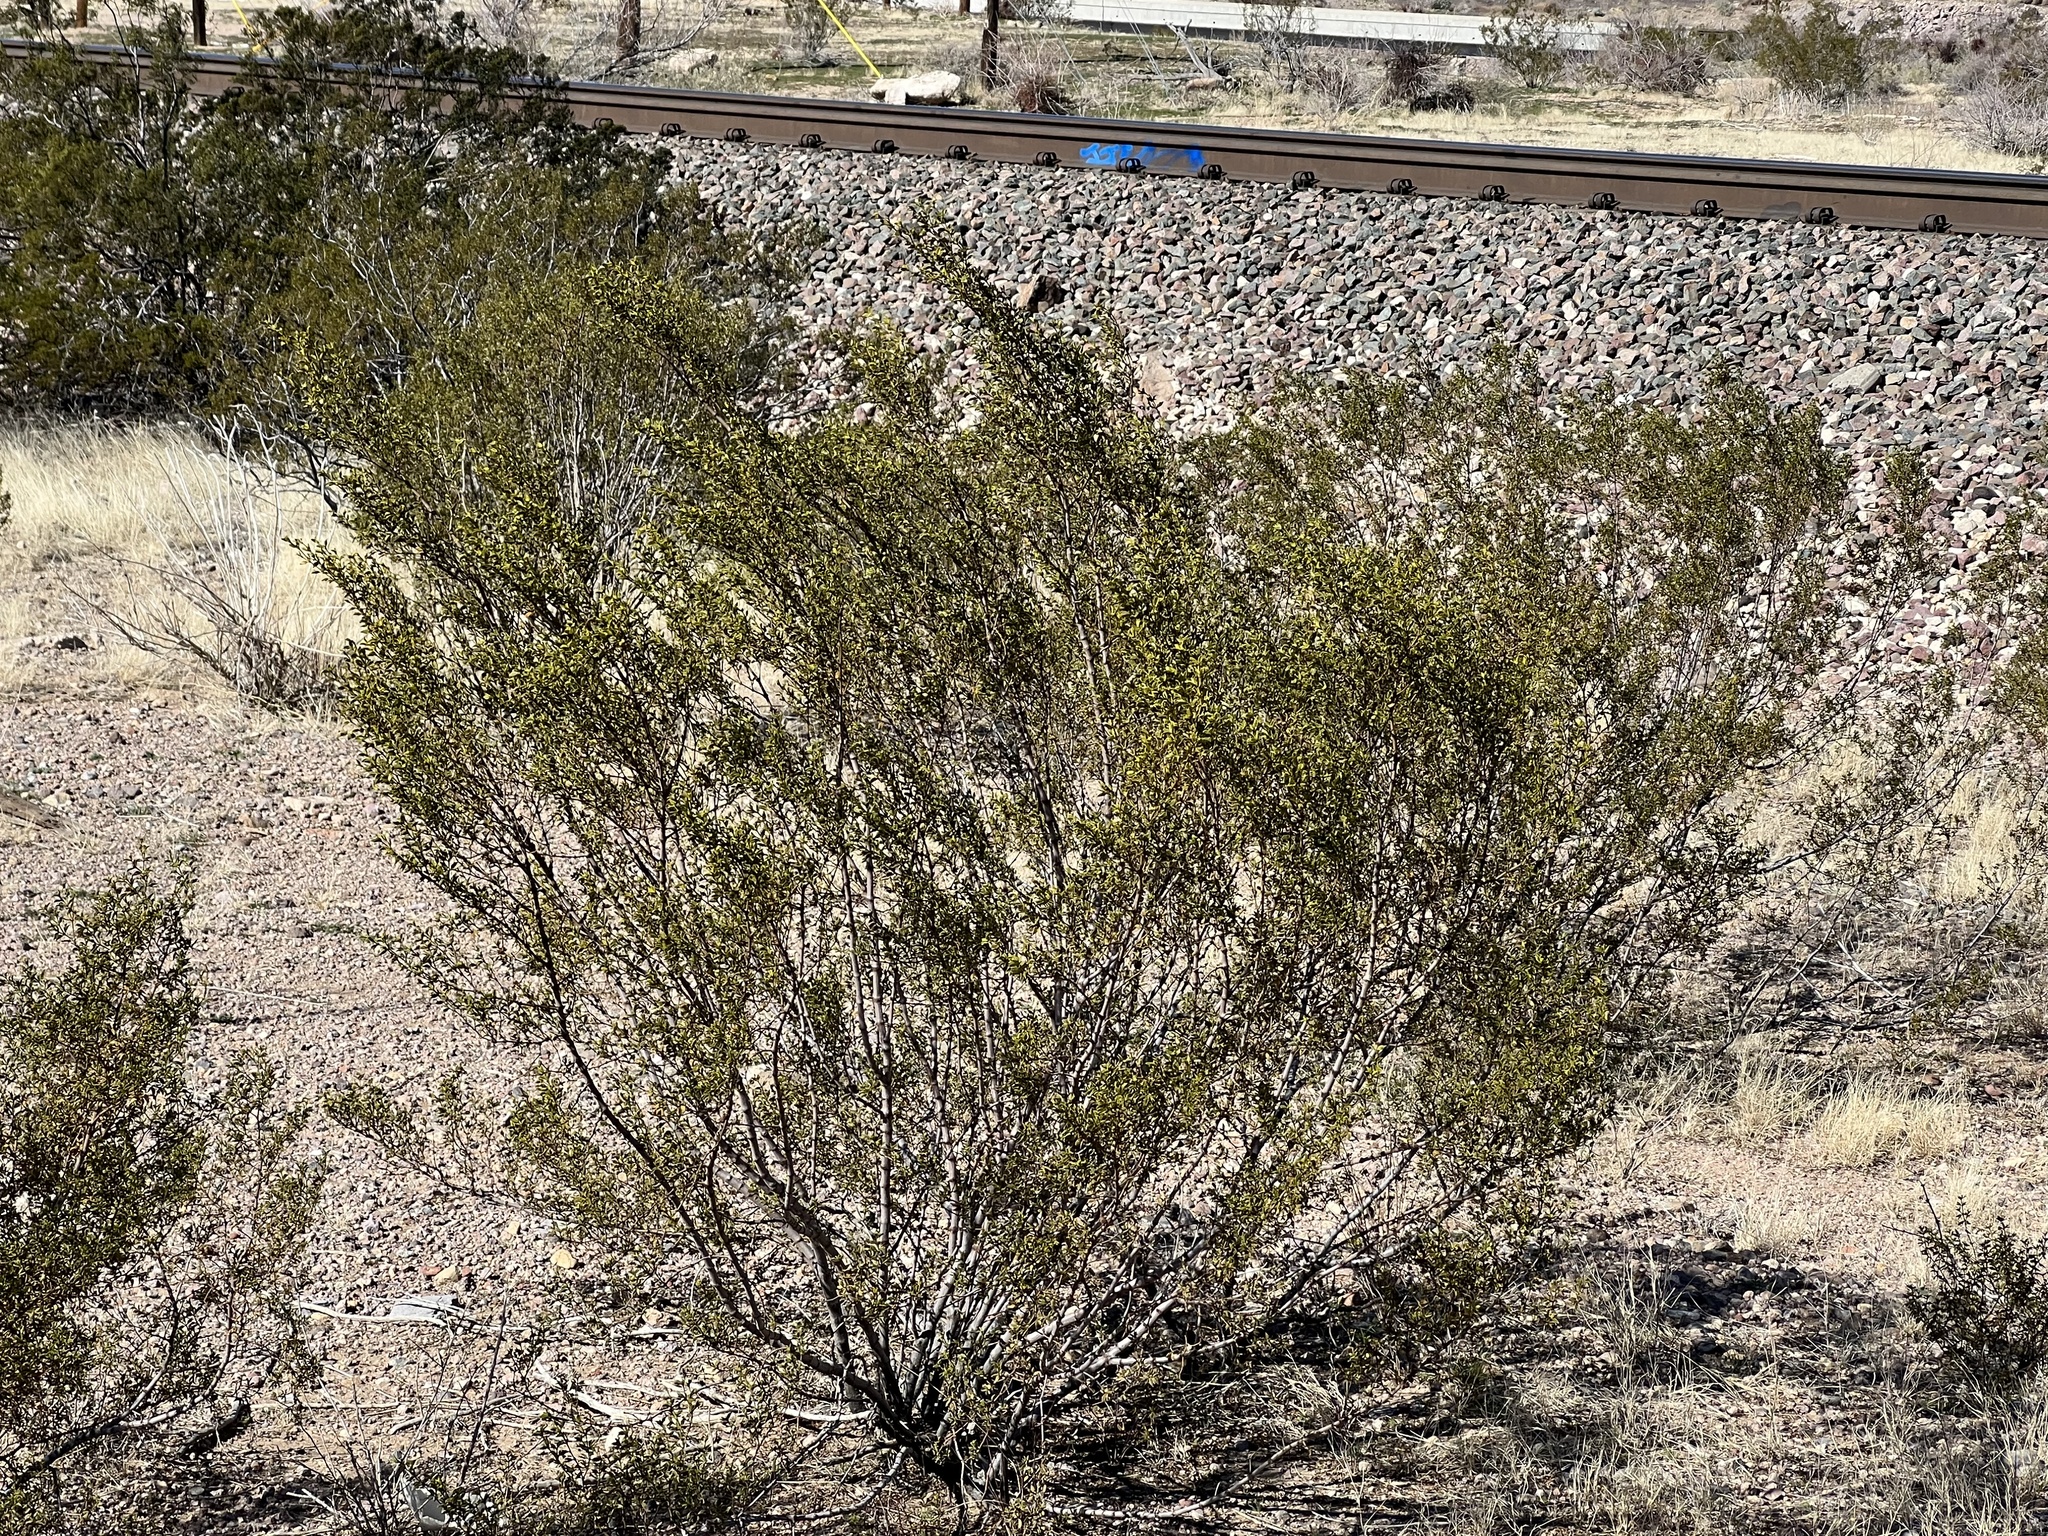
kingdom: Plantae
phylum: Tracheophyta
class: Magnoliopsida
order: Zygophyllales
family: Zygophyllaceae
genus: Larrea
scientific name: Larrea tridentata
